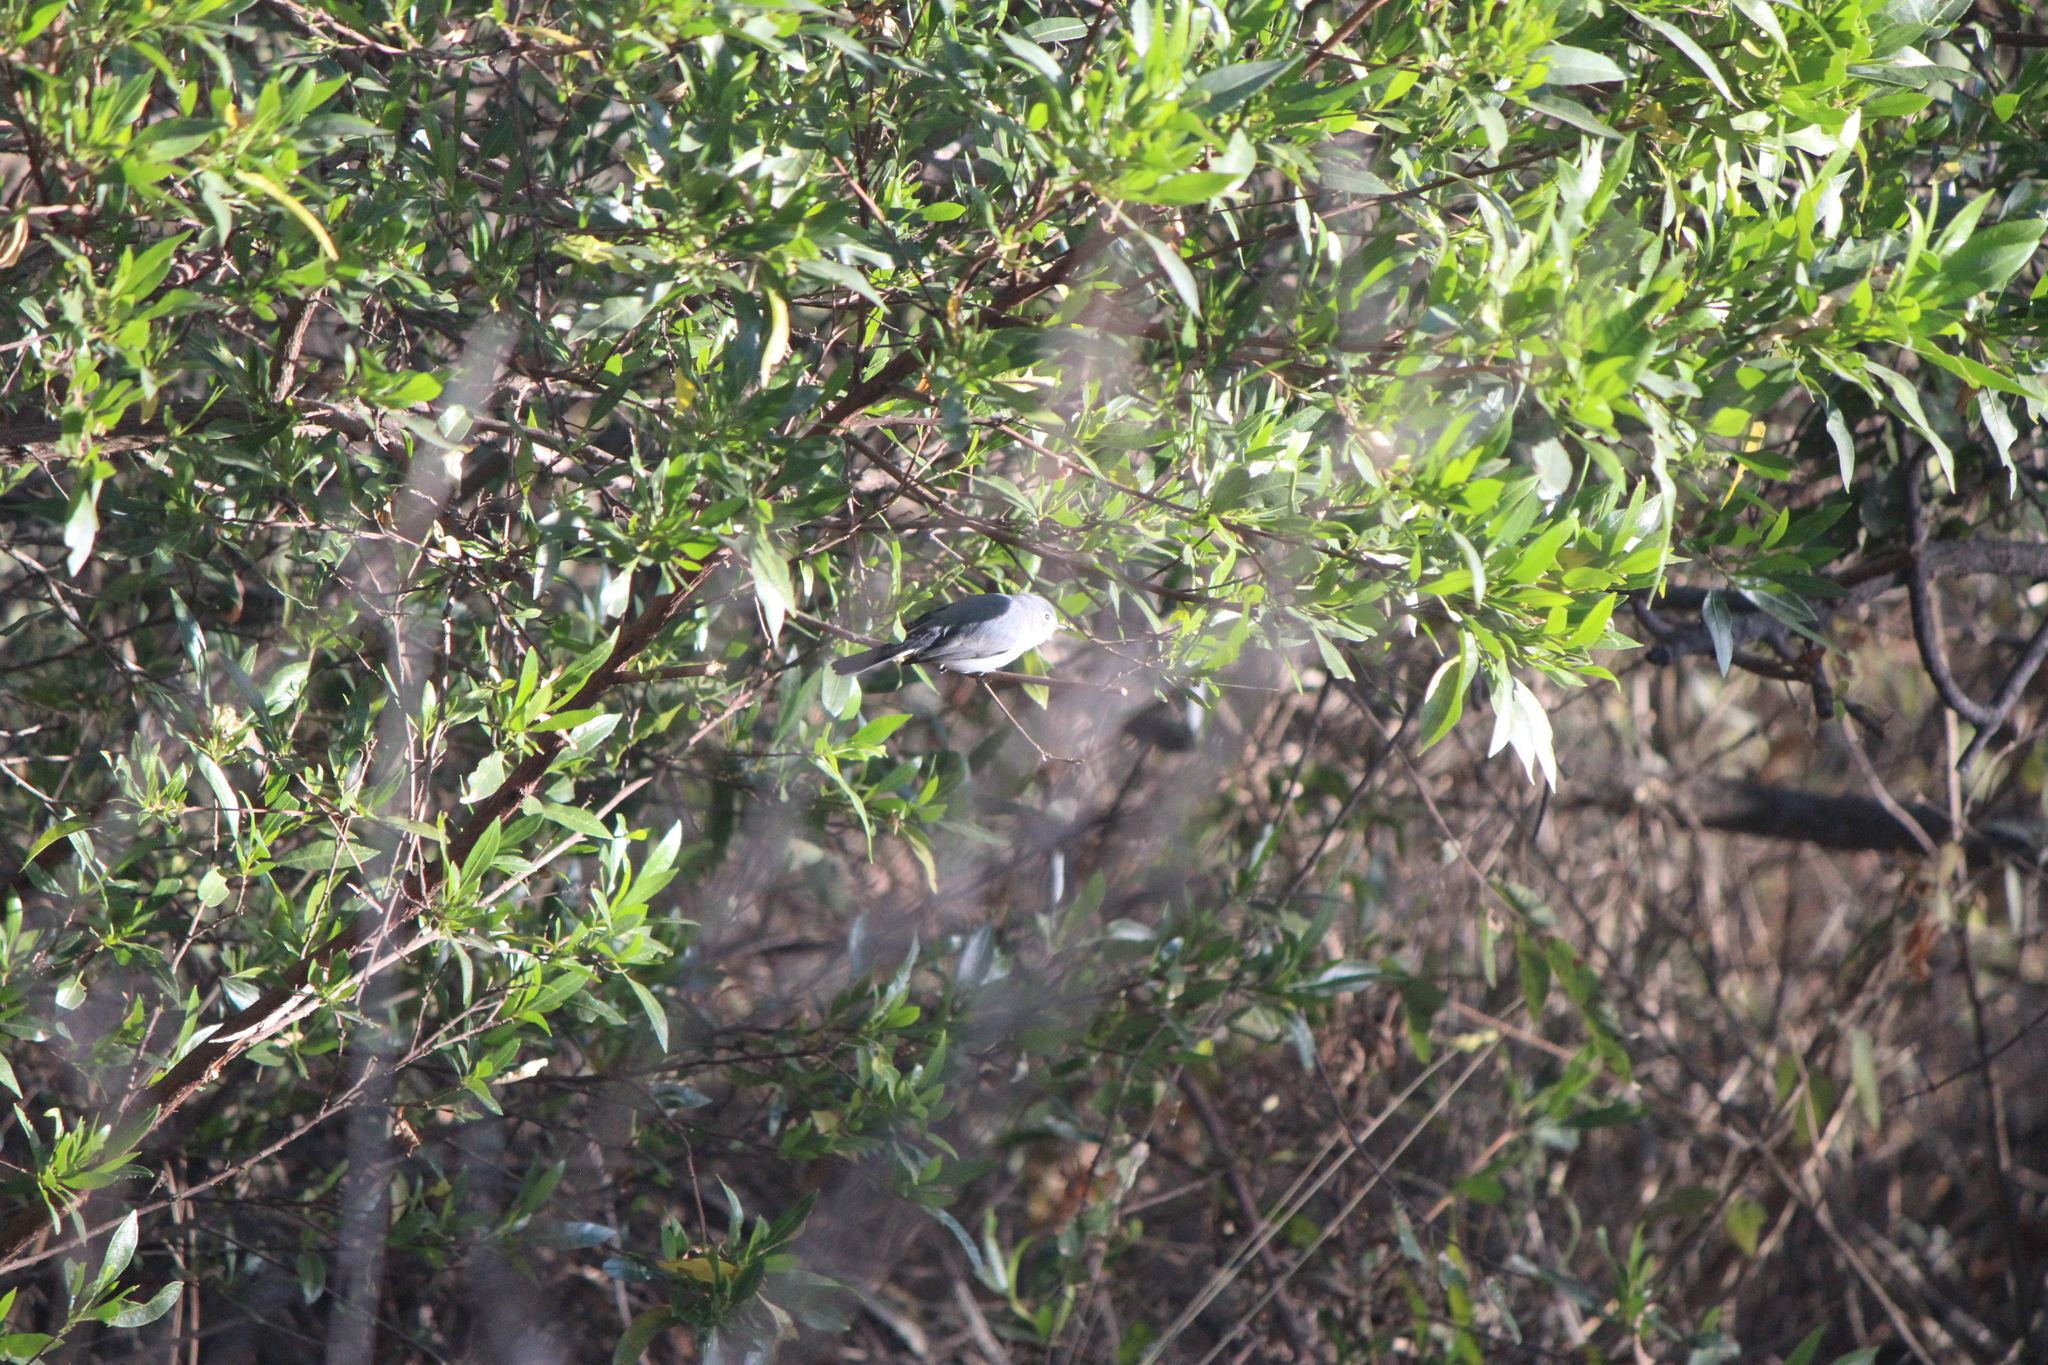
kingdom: Animalia
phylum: Chordata
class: Aves
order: Passeriformes
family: Polioptilidae
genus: Polioptila
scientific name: Polioptila caerulea
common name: Blue-gray gnatcatcher
